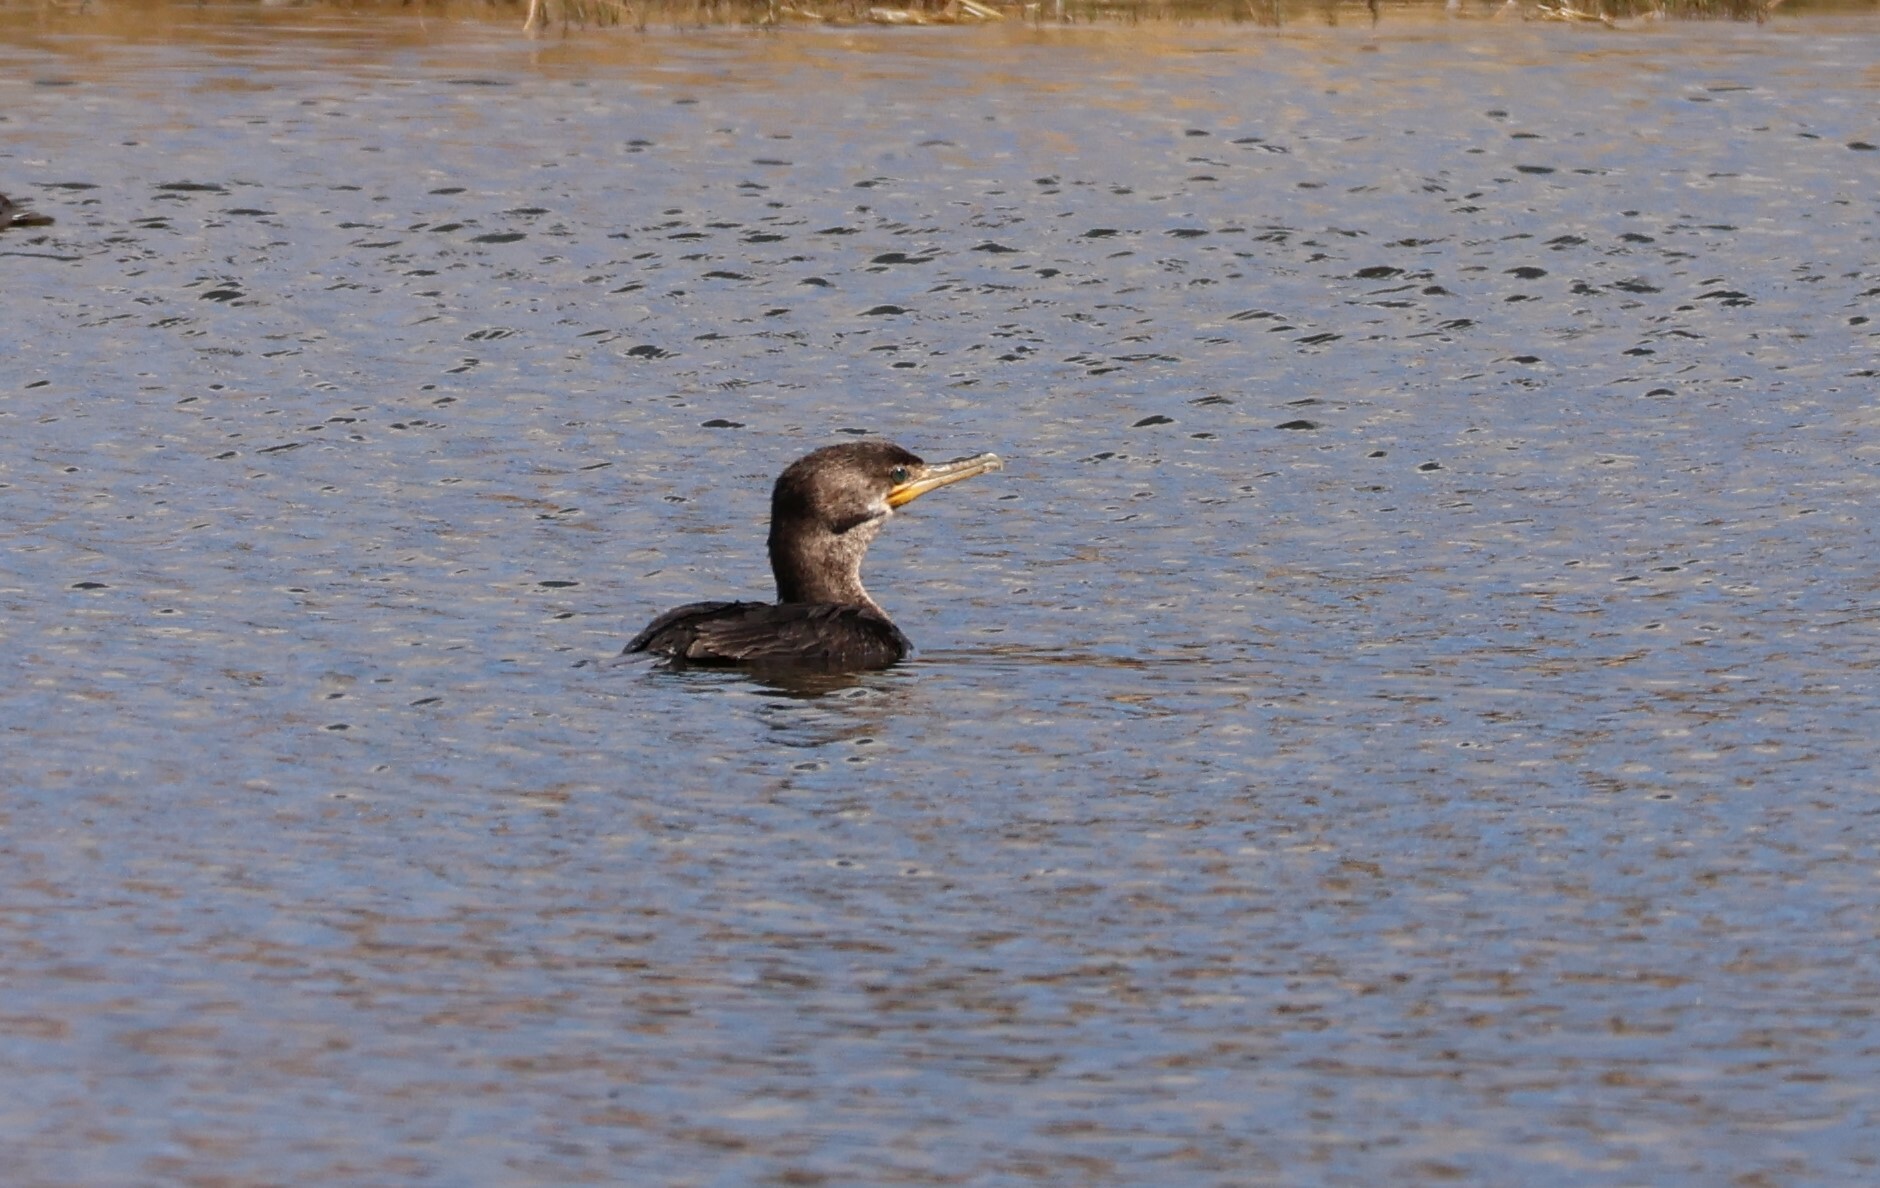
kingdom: Animalia
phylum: Chordata
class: Aves
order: Suliformes
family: Phalacrocoracidae
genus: Phalacrocorax
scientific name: Phalacrocorax auritus
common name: Double-crested cormorant
